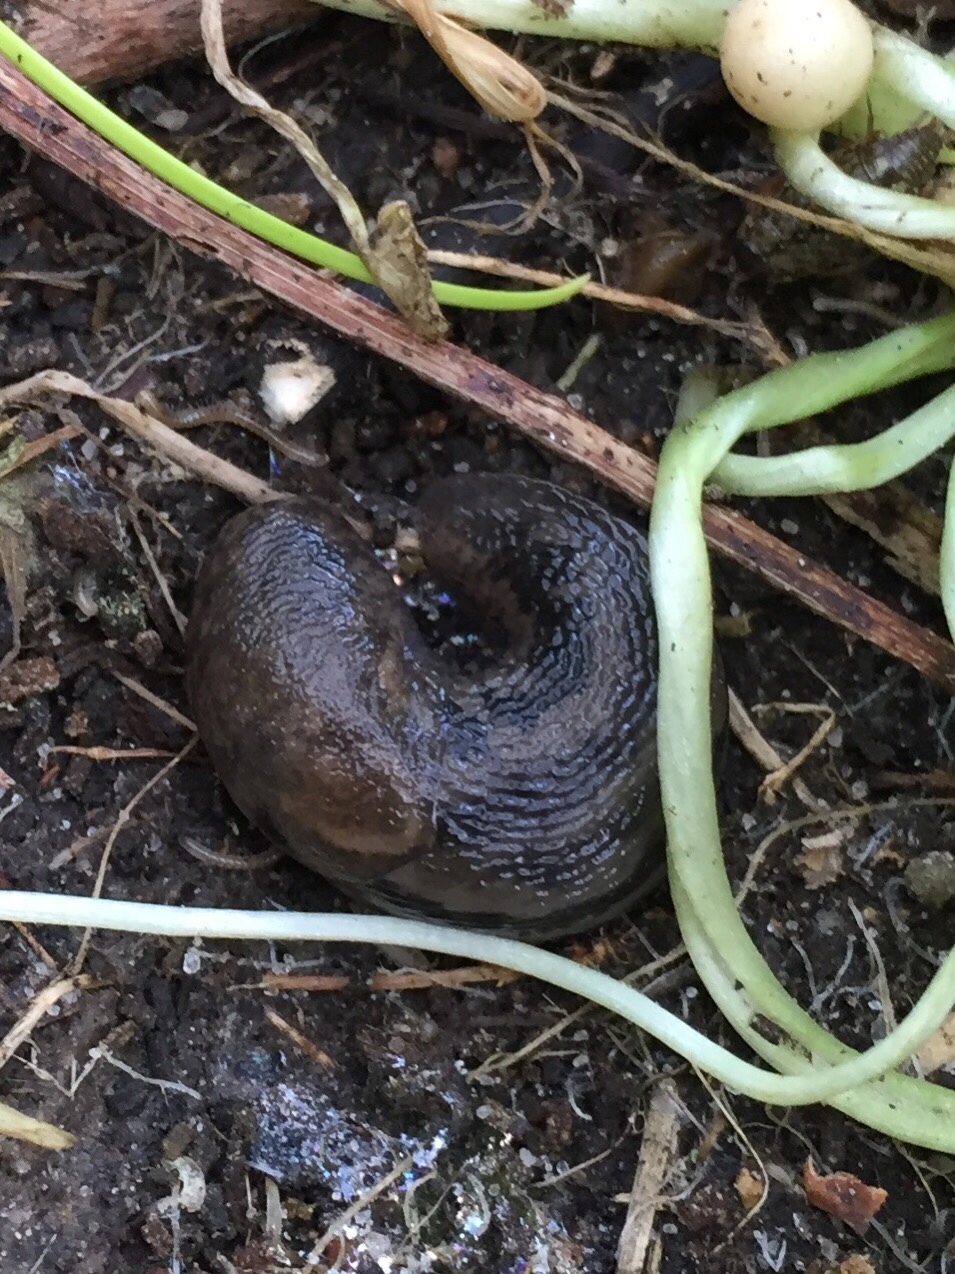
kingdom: Animalia
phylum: Mollusca
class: Gastropoda
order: Stylommatophora
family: Limacidae
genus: Limax
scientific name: Limax maximus
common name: Great grey slug
